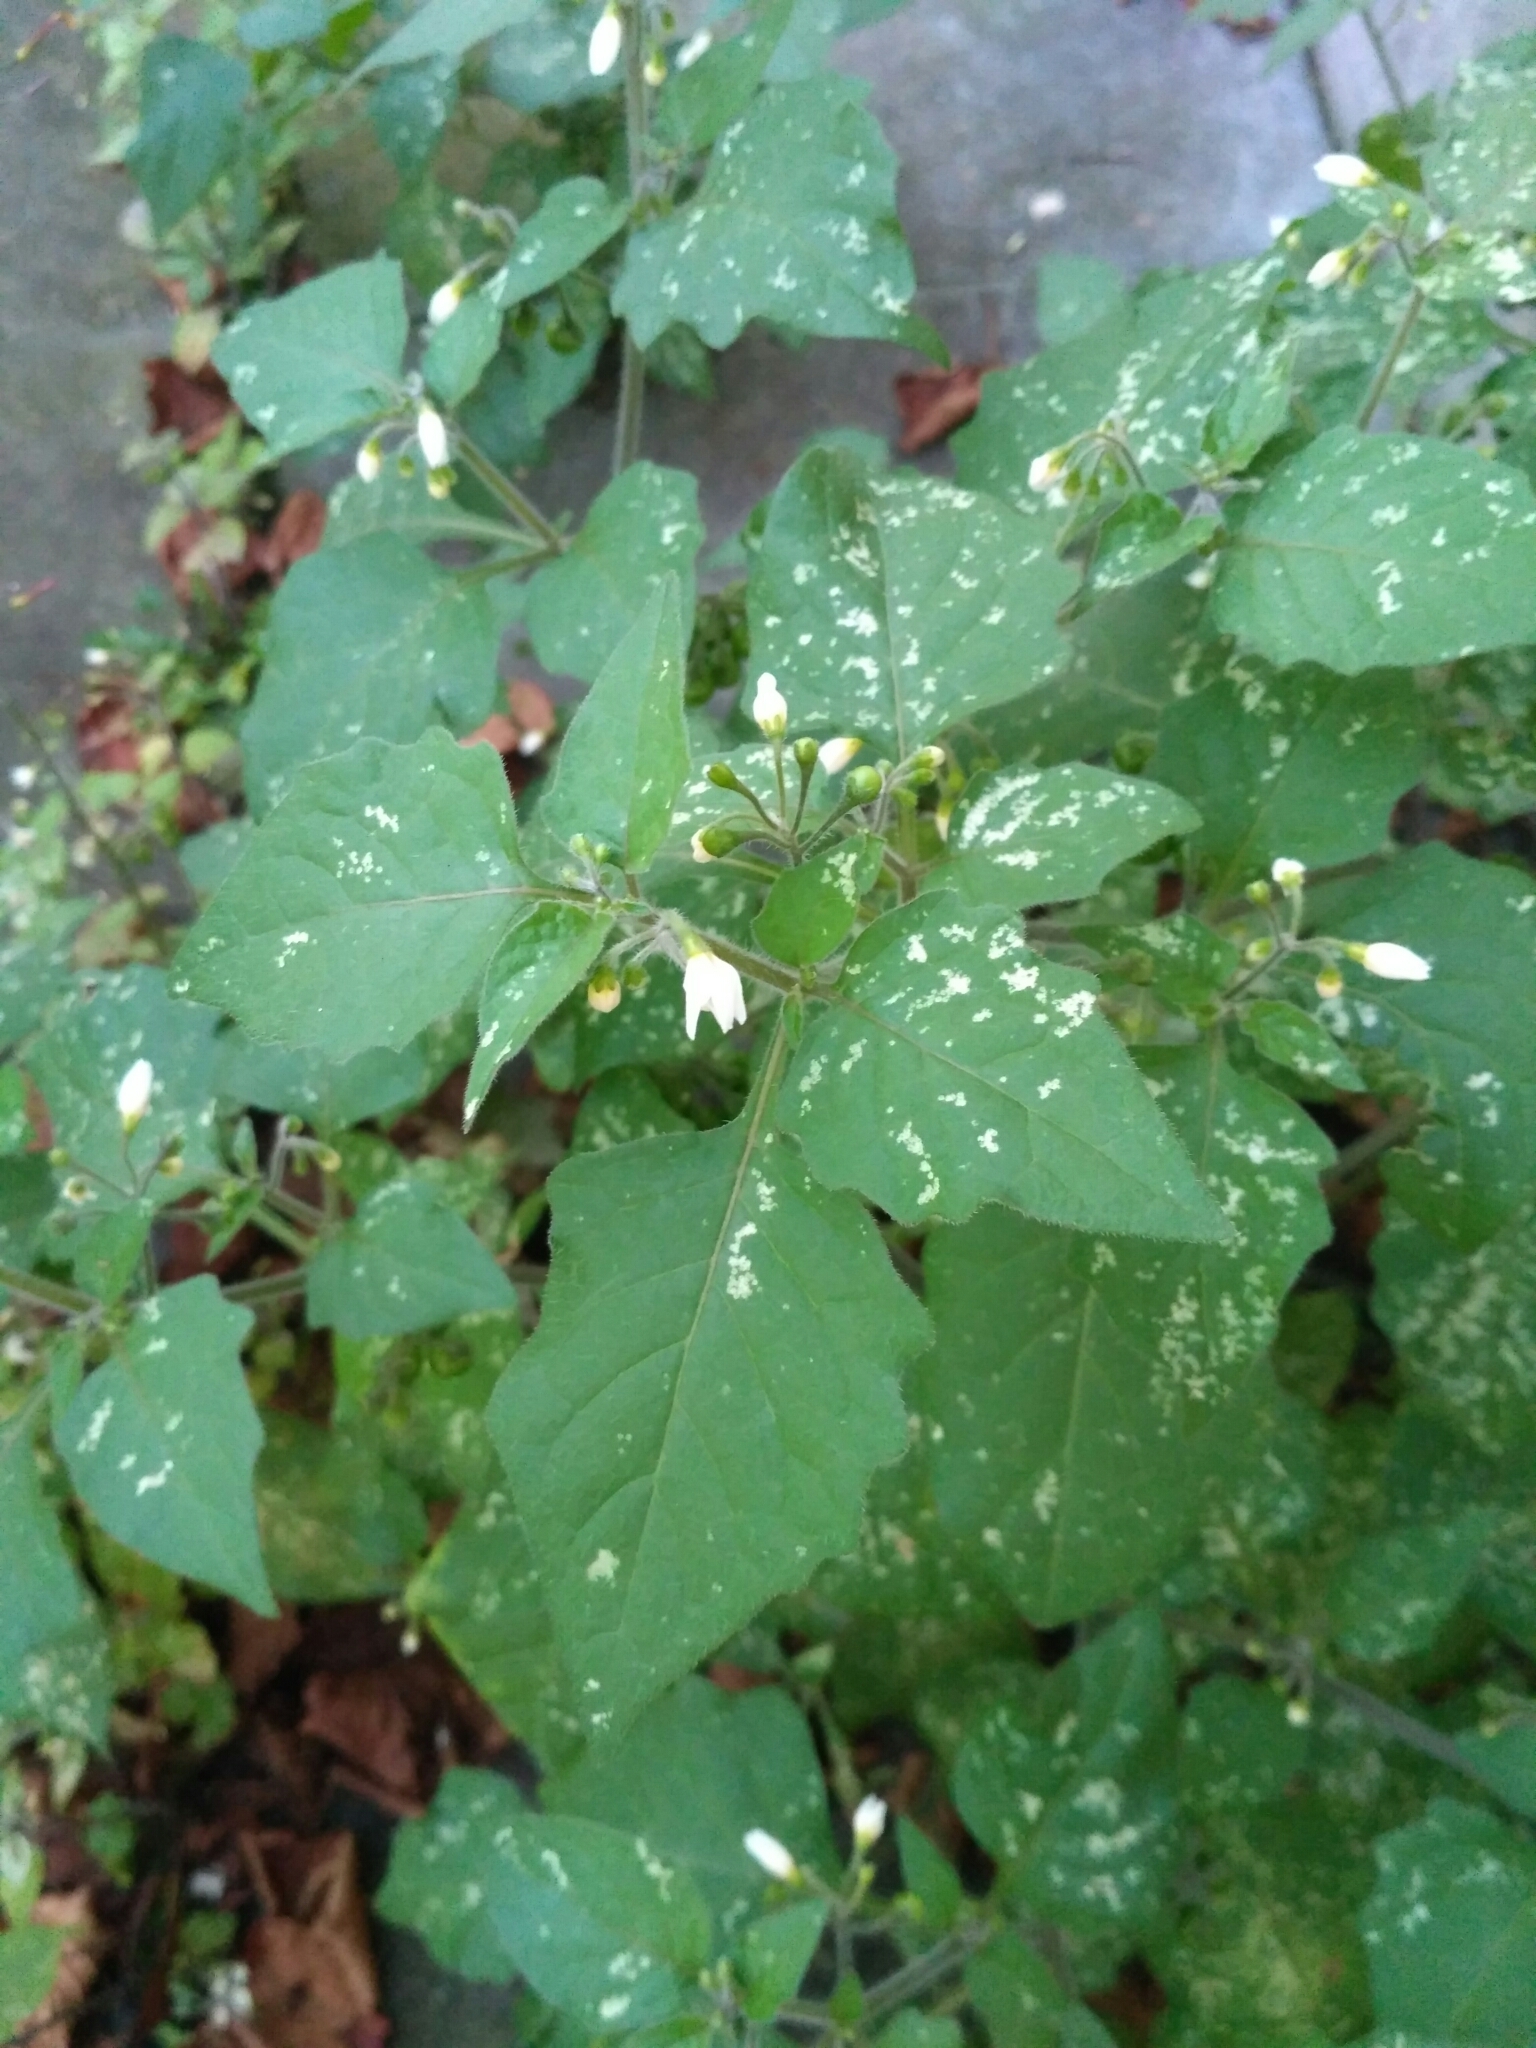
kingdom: Plantae
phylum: Tracheophyta
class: Magnoliopsida
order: Solanales
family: Solanaceae
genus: Solanum
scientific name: Solanum nigrum
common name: Black nightshade
